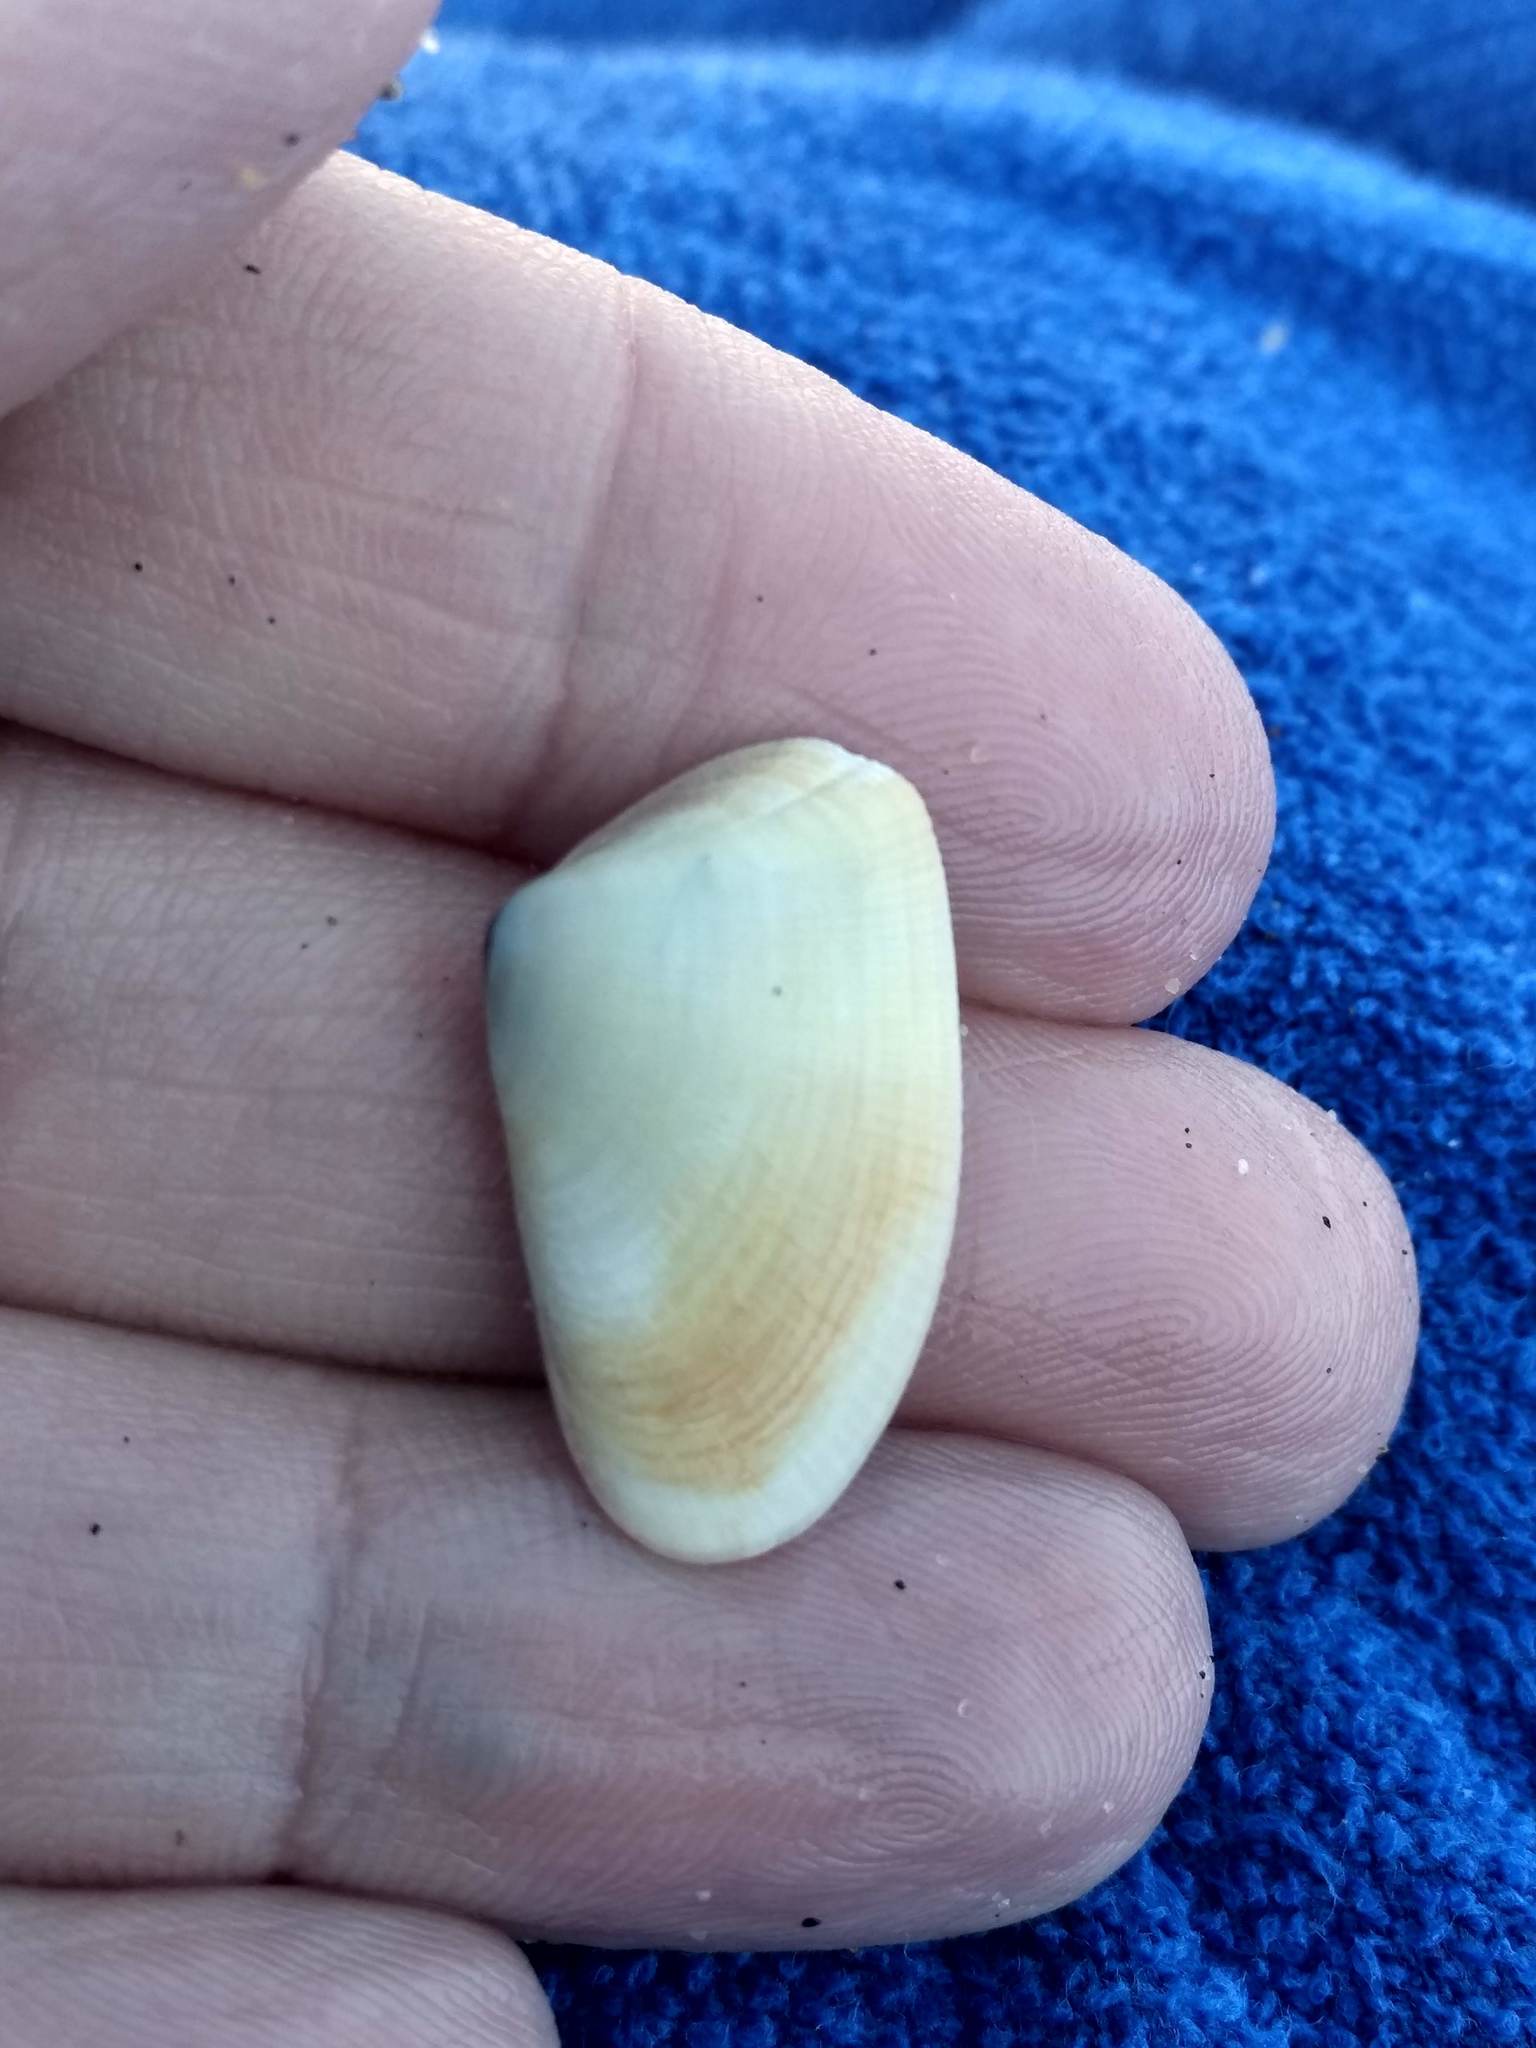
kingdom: Animalia
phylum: Mollusca
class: Bivalvia
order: Cardiida
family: Donacidae
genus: Donax
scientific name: Donax gouldii
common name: Gould beanclam
